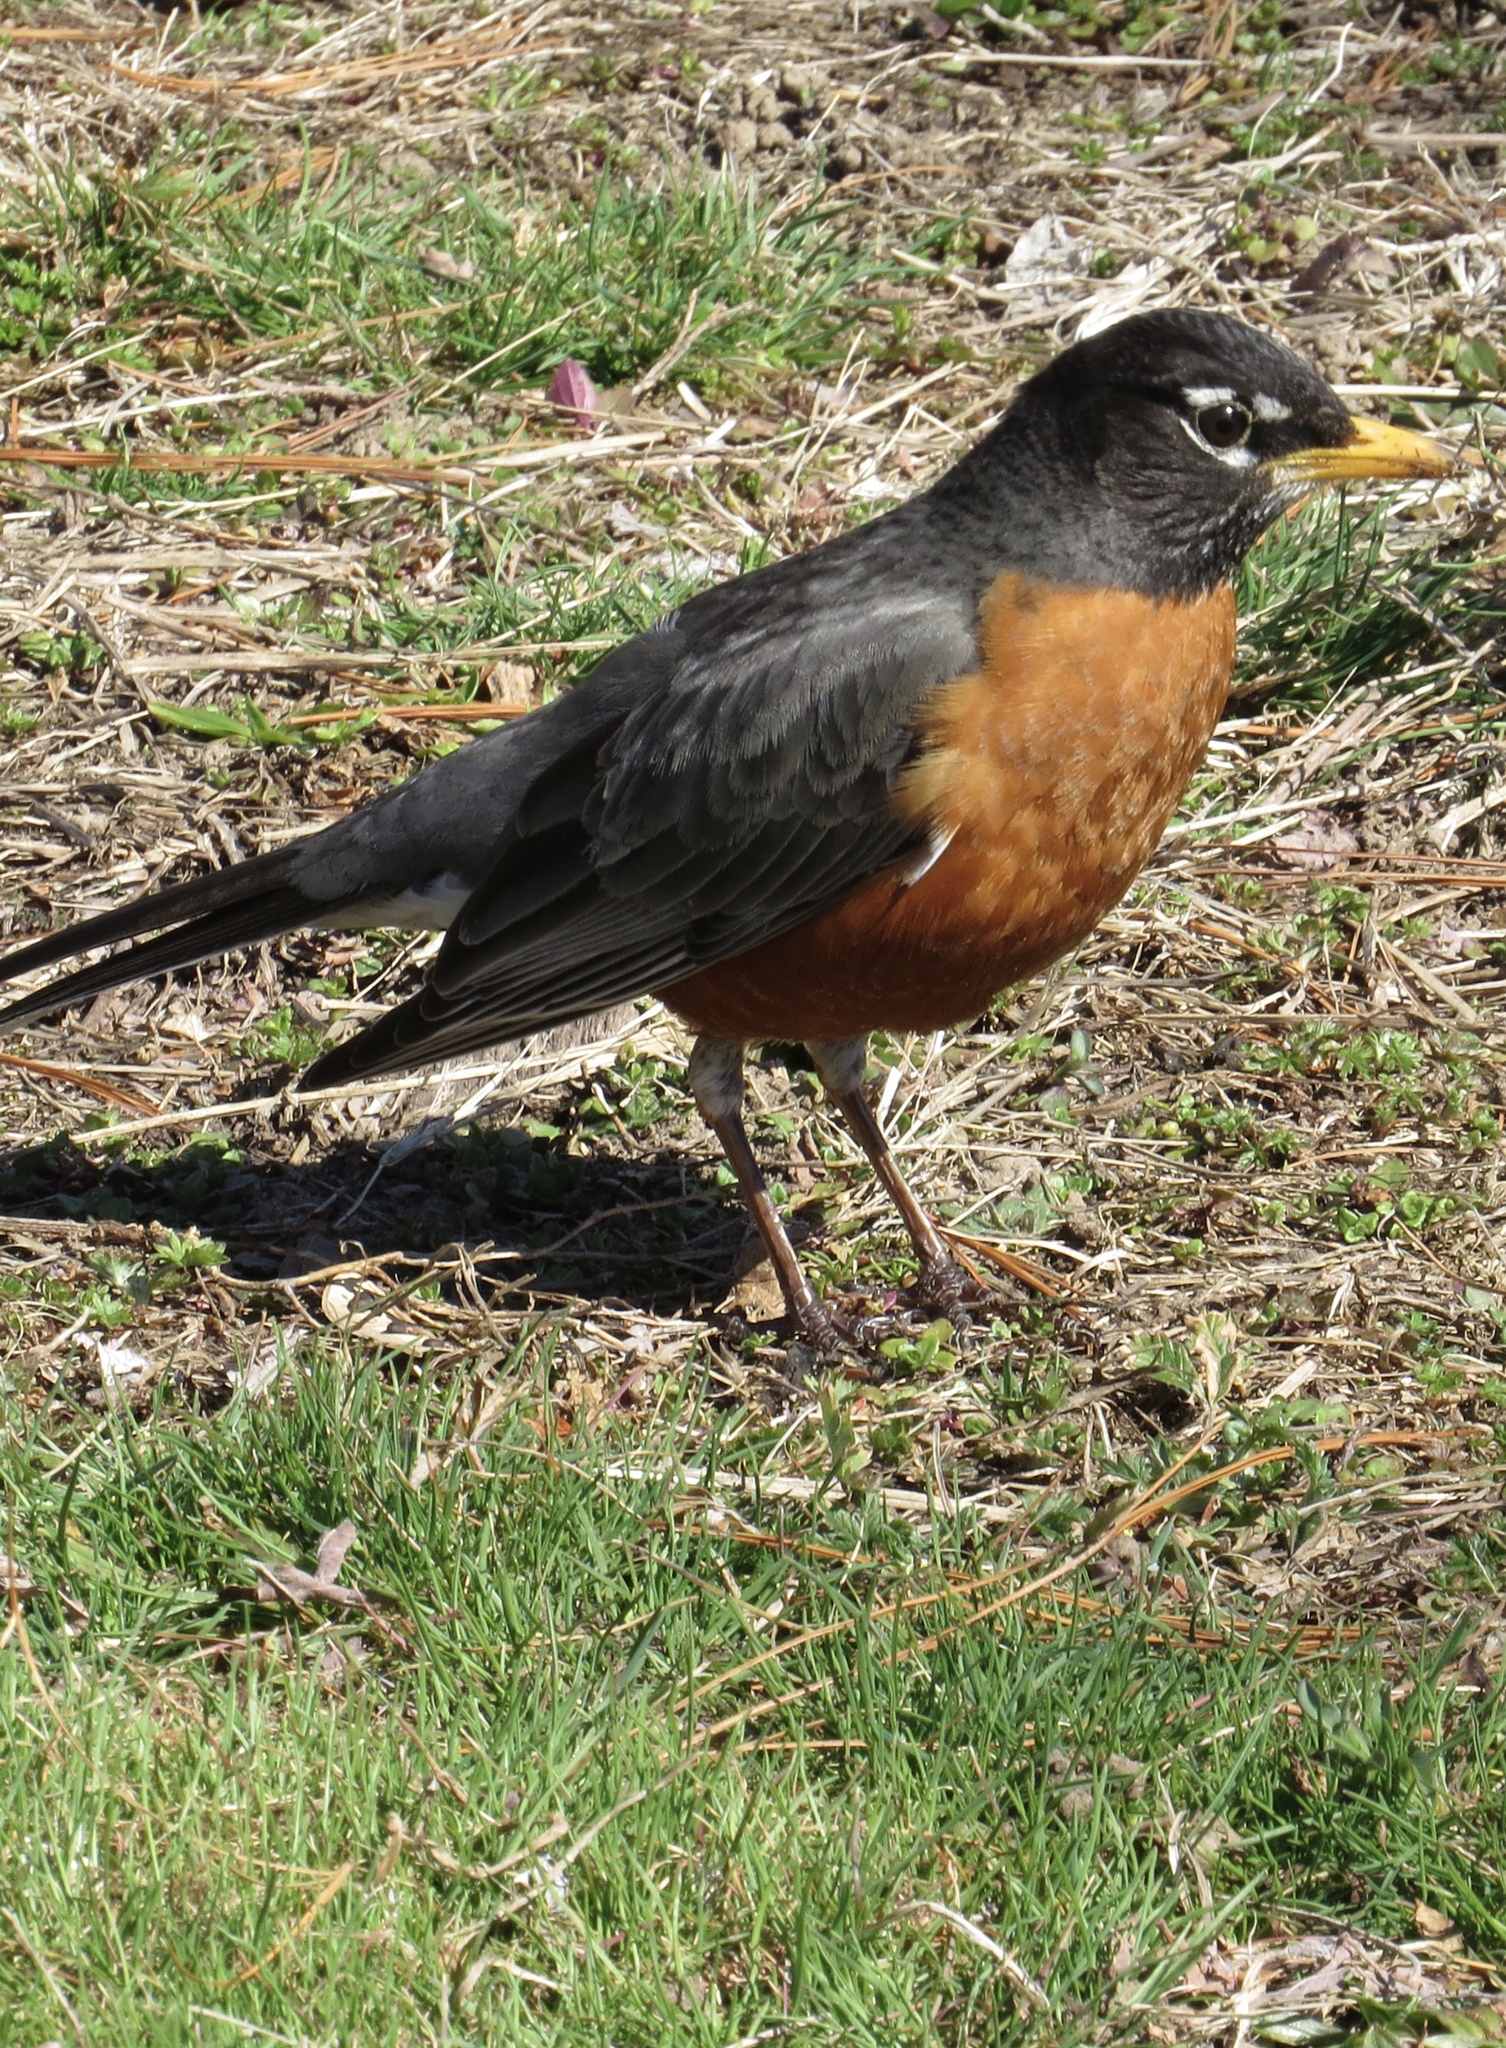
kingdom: Animalia
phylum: Chordata
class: Aves
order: Passeriformes
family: Turdidae
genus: Turdus
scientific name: Turdus migratorius
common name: American robin
